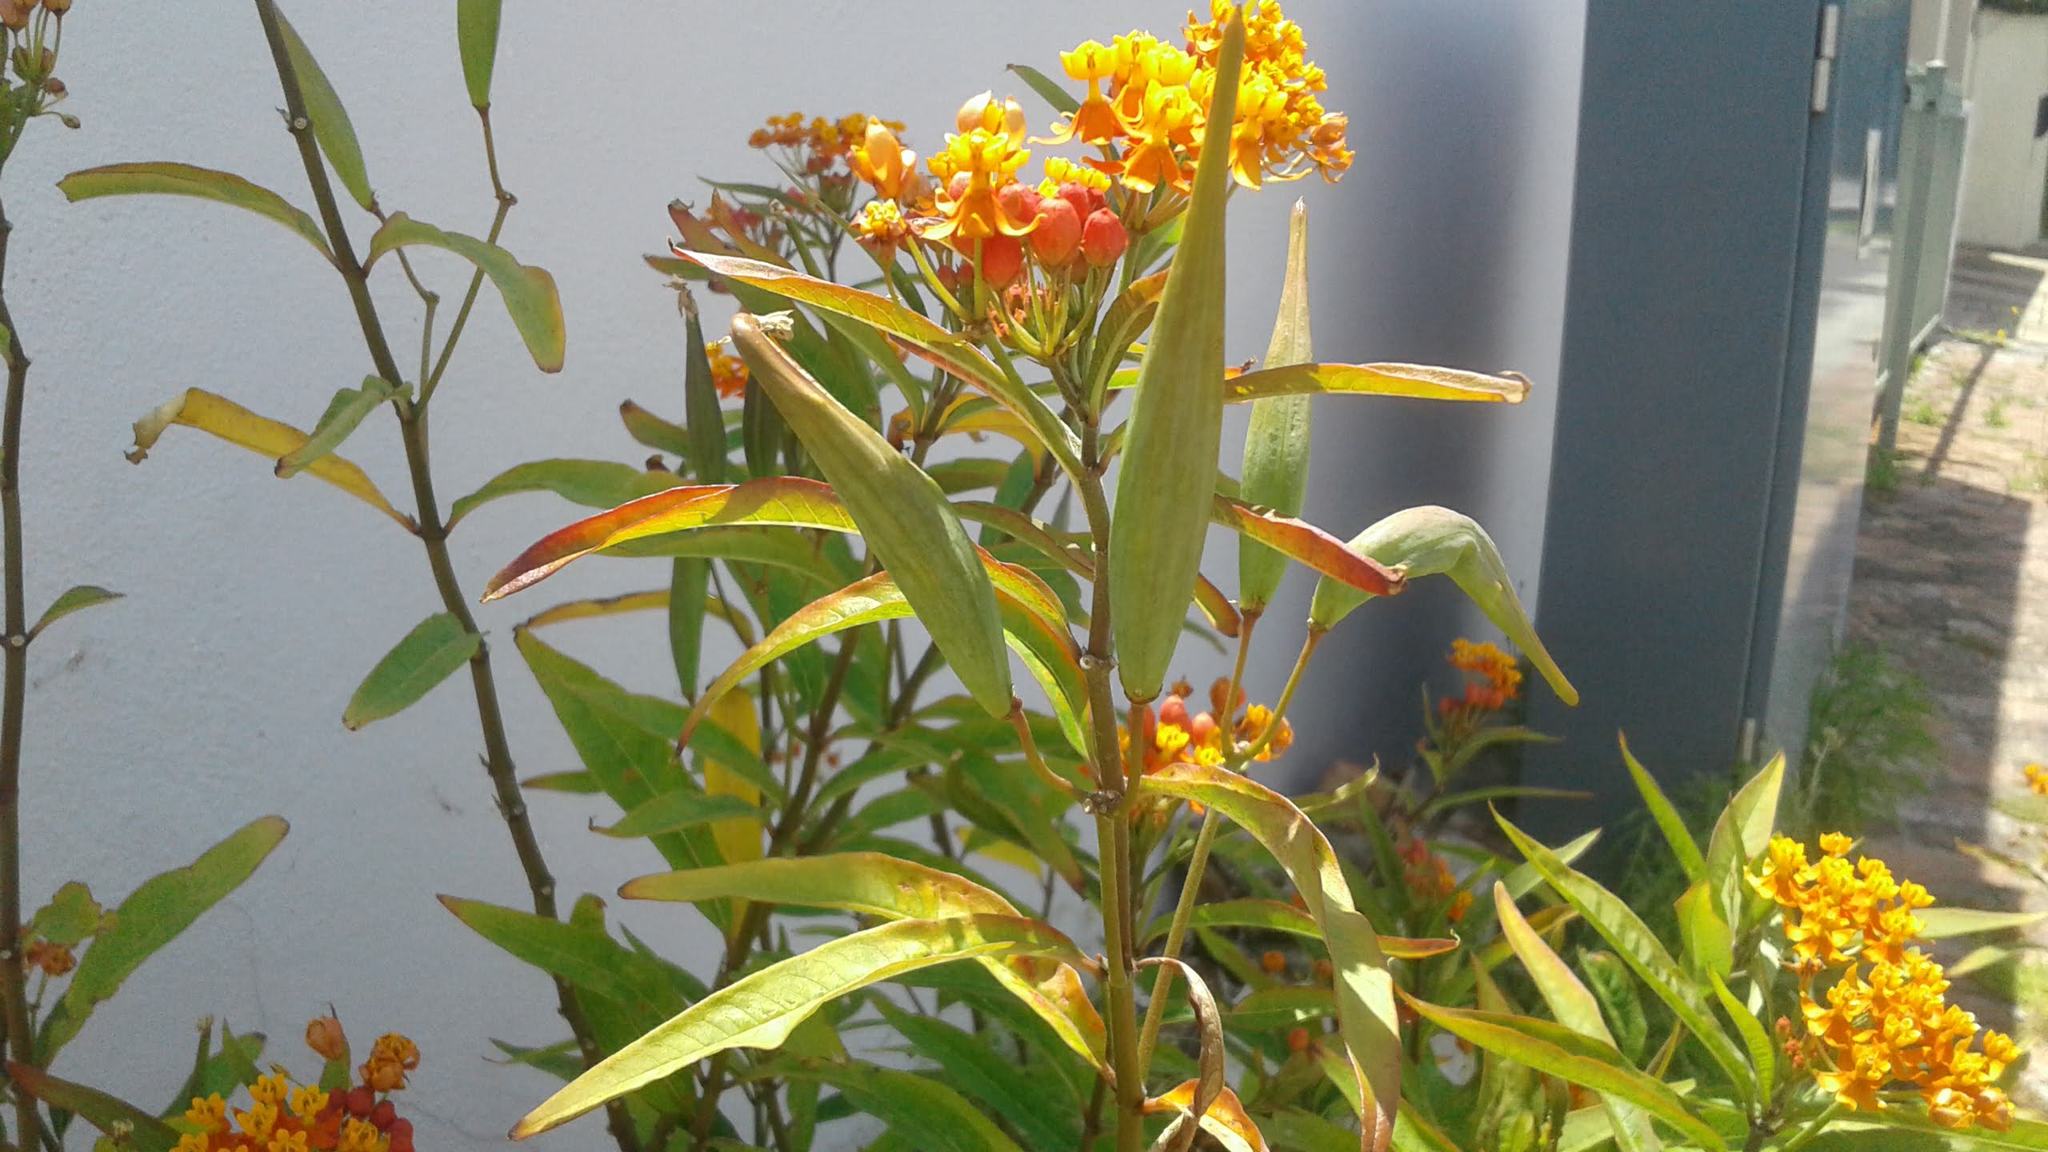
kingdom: Plantae
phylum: Tracheophyta
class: Magnoliopsida
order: Gentianales
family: Apocynaceae
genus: Asclepias
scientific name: Asclepias curassavica
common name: Bloodflower
